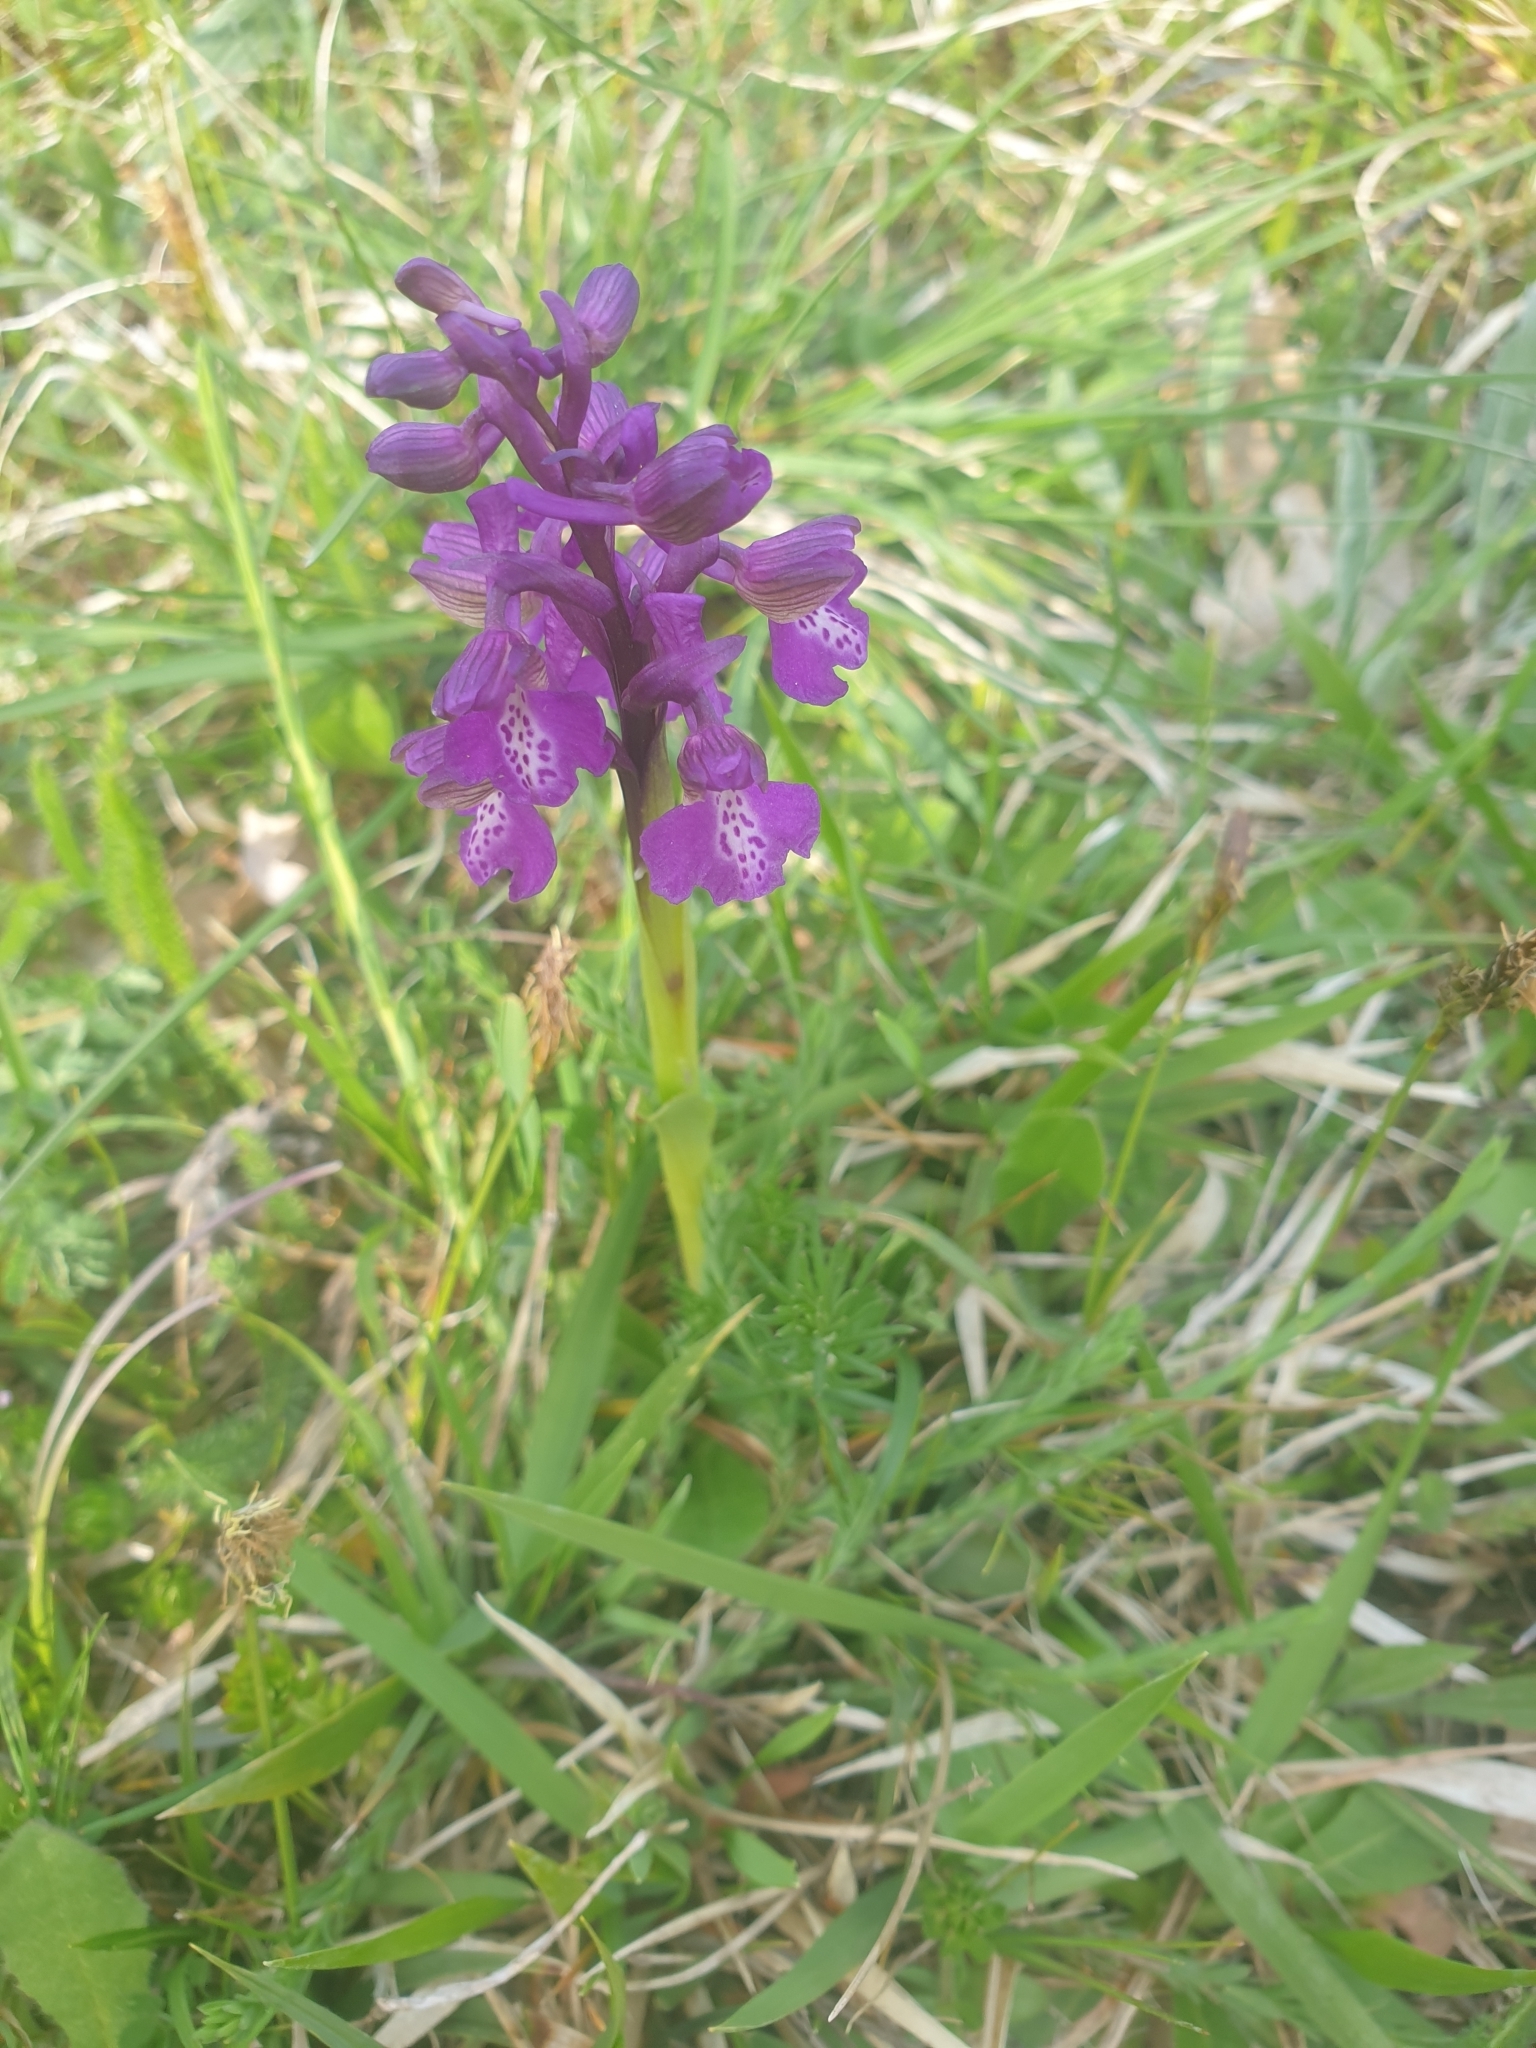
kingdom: Plantae
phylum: Tracheophyta
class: Liliopsida
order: Asparagales
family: Orchidaceae
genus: Anacamptis
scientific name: Anacamptis morio
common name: Green-winged orchid
